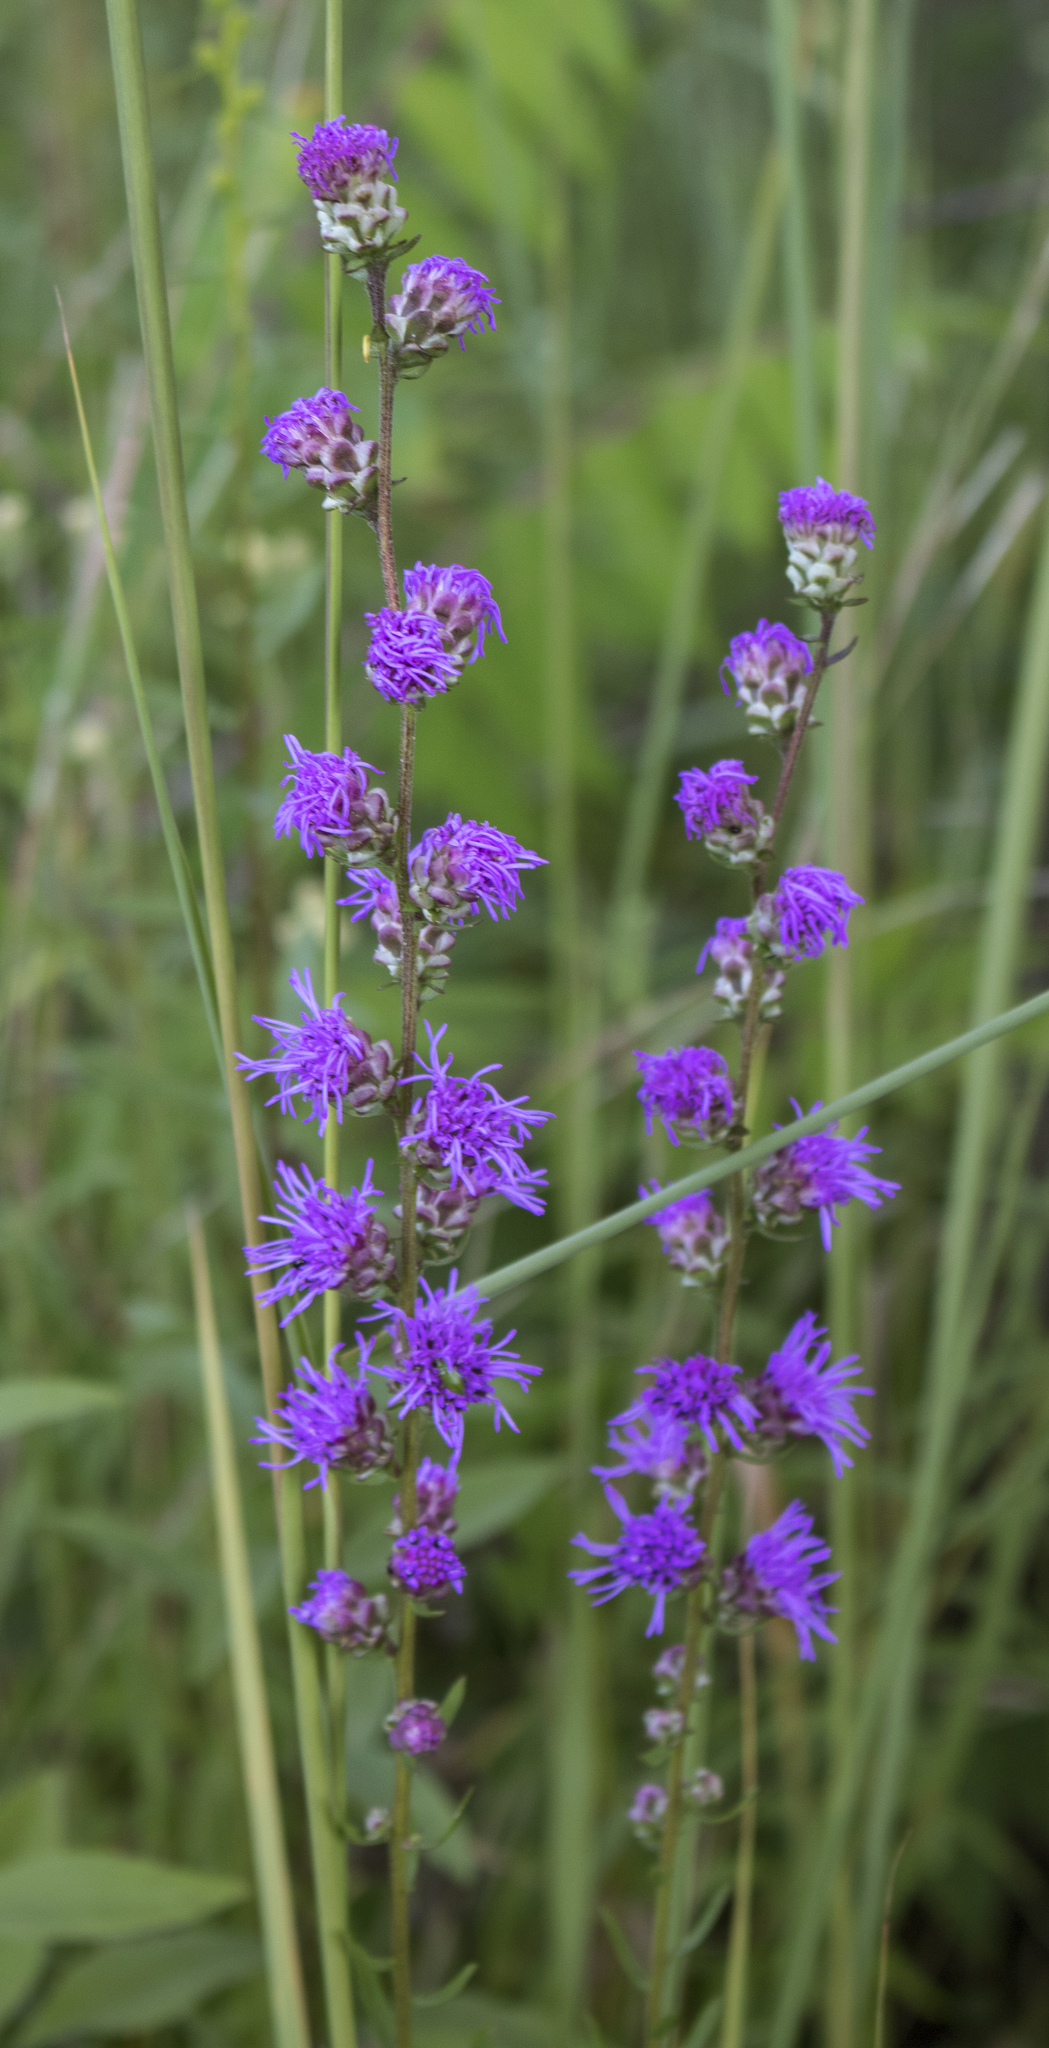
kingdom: Plantae
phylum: Tracheophyta
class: Magnoliopsida
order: Asterales
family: Asteraceae
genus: Liatris
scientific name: Liatris aspera
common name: Lacerate blazing-star
